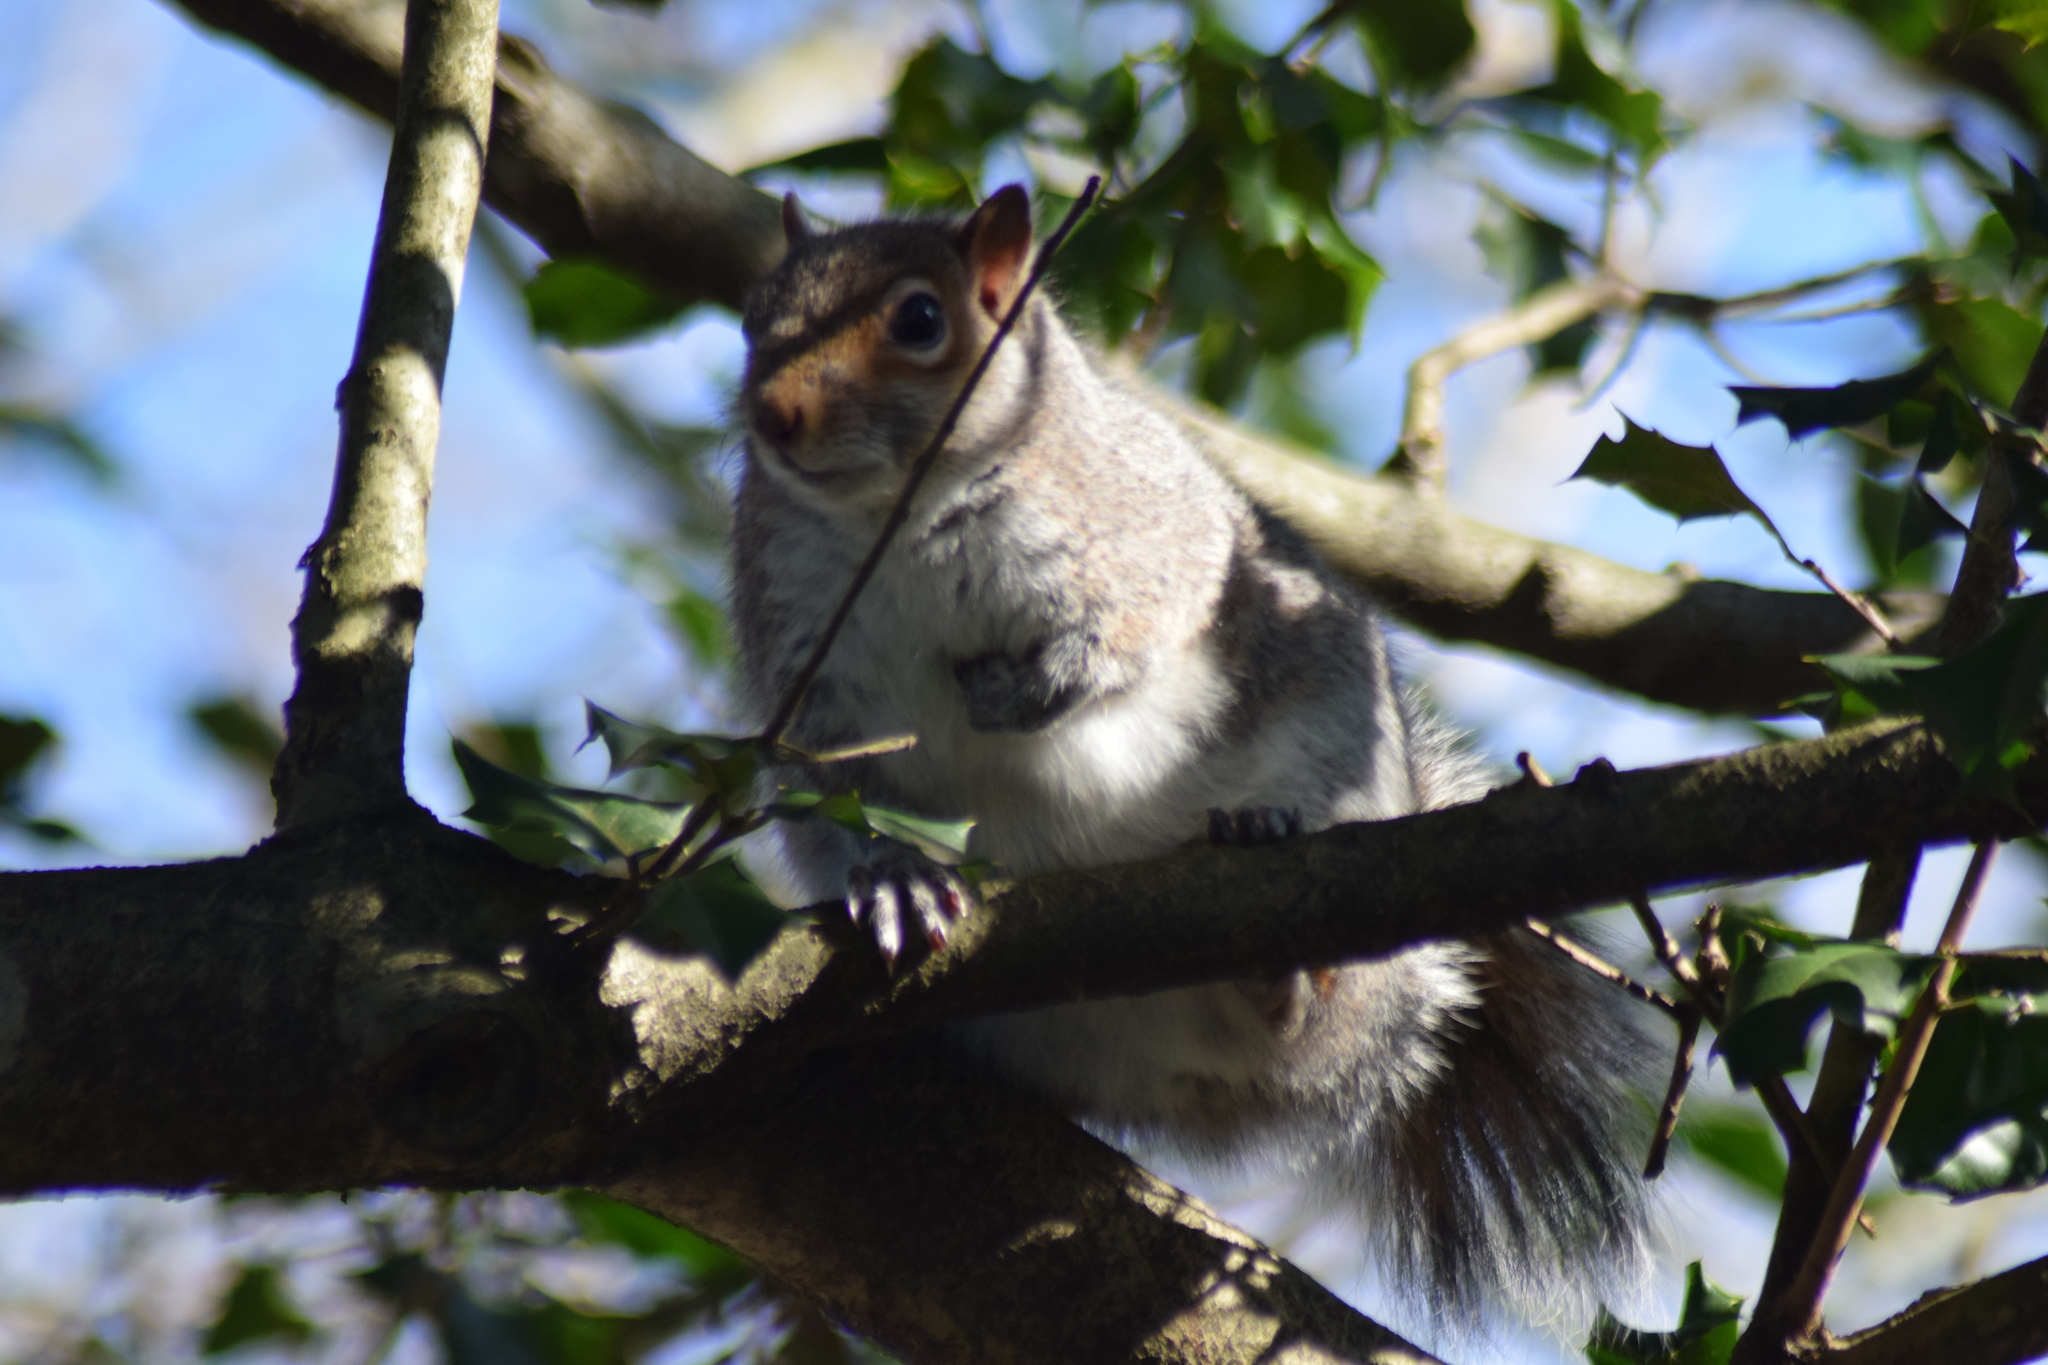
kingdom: Animalia
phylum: Chordata
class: Mammalia
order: Rodentia
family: Sciuridae
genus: Sciurus
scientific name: Sciurus carolinensis
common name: Eastern gray squirrel
